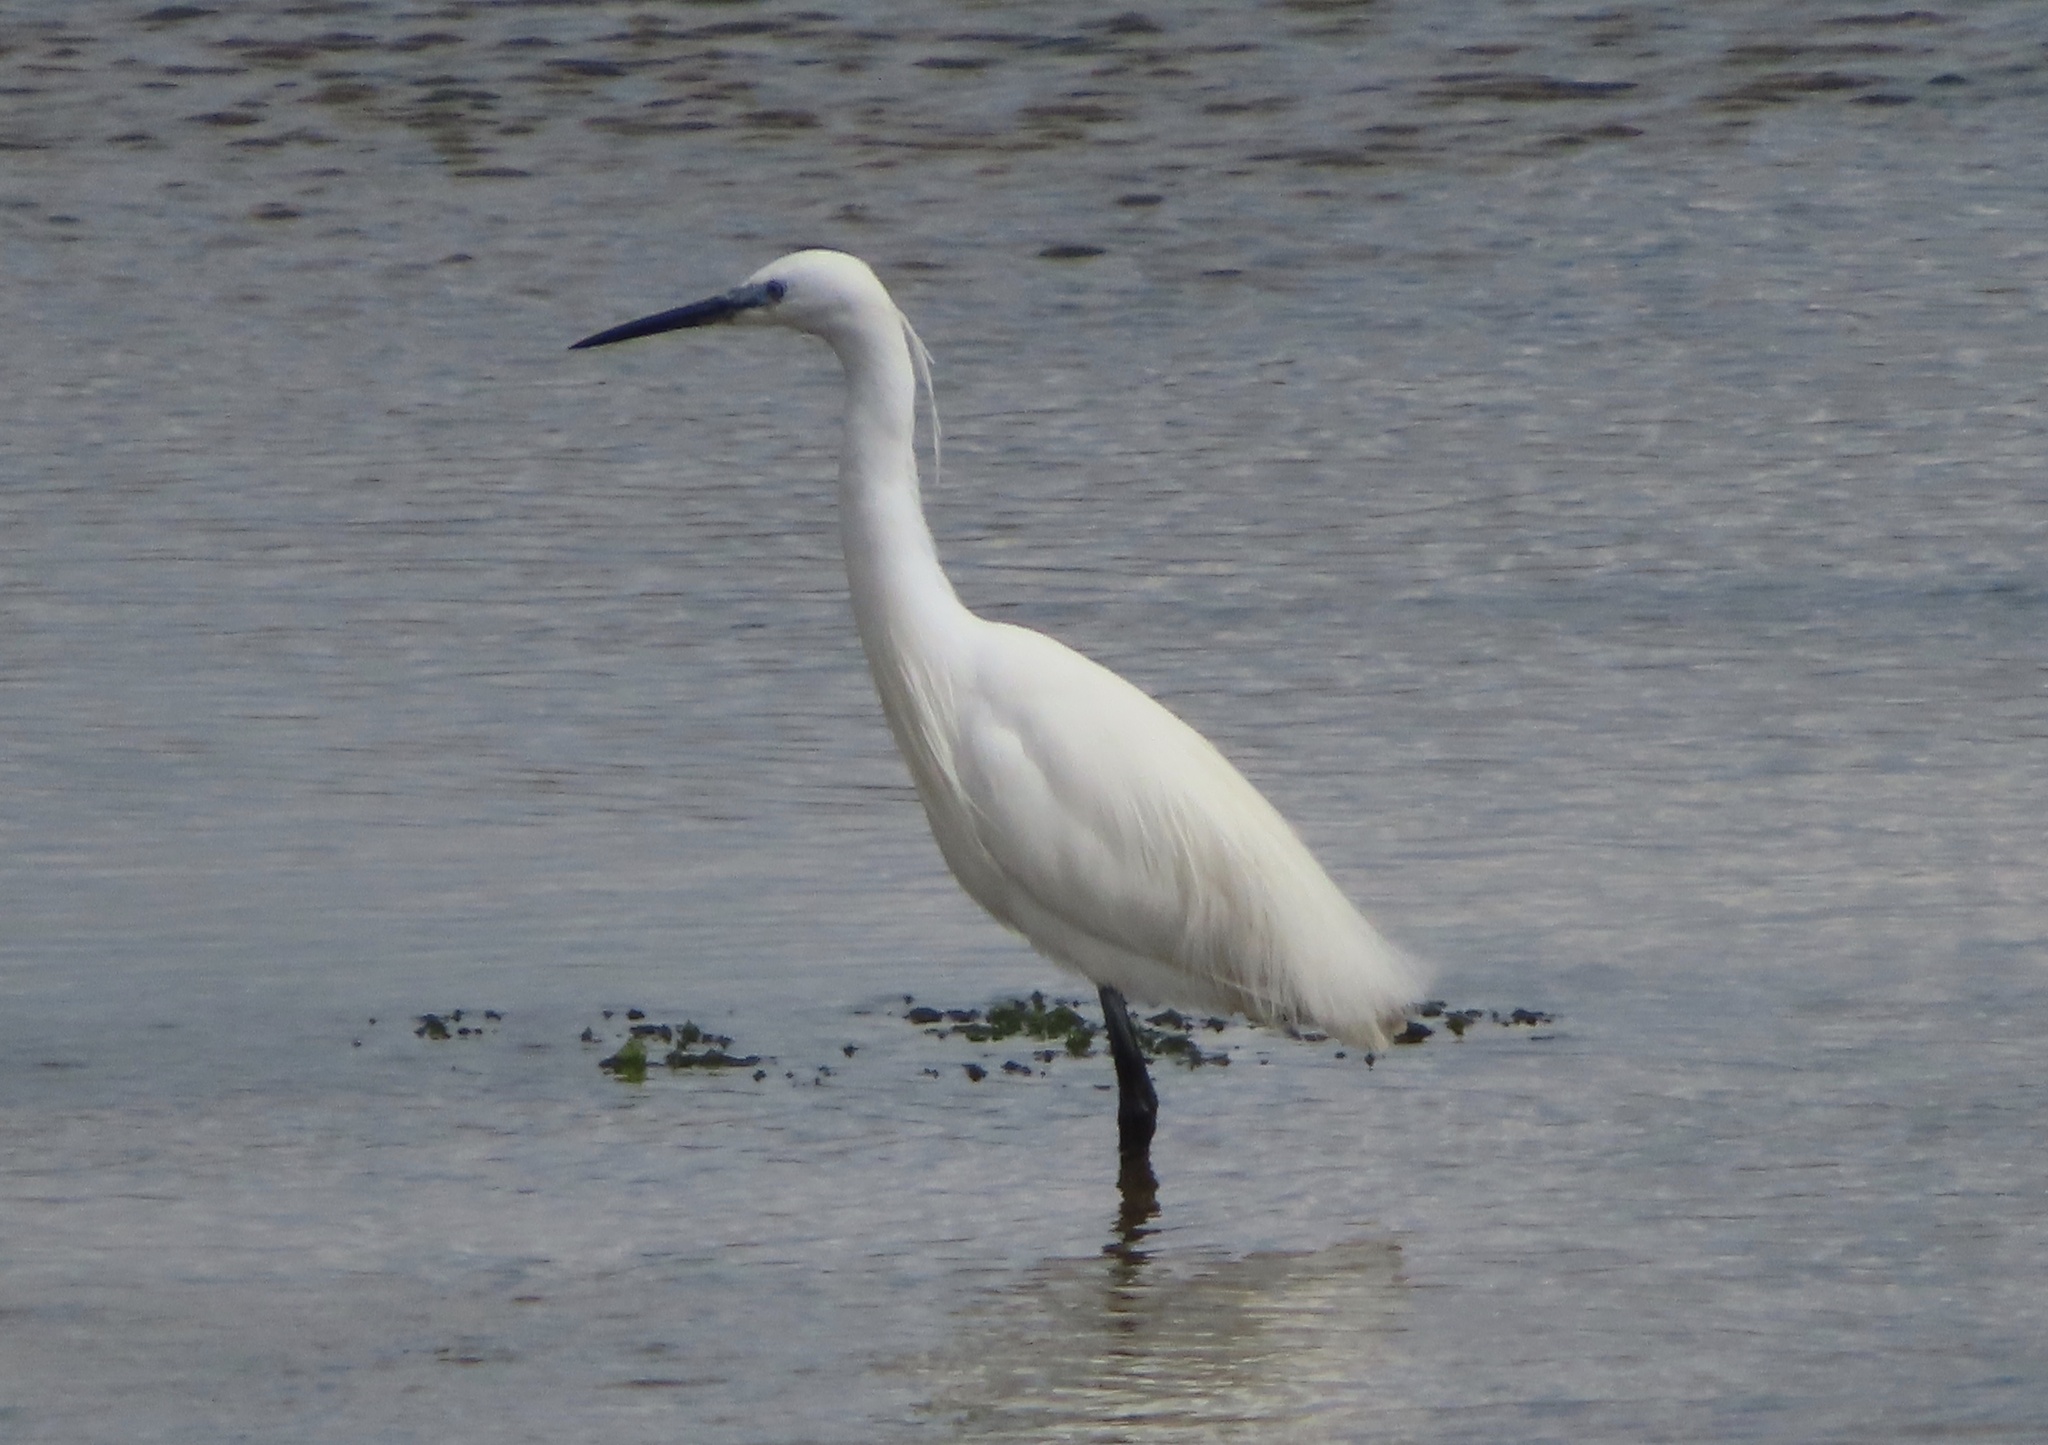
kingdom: Animalia
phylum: Chordata
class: Aves
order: Pelecaniformes
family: Ardeidae
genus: Egretta
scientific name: Egretta garzetta
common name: Little egret
